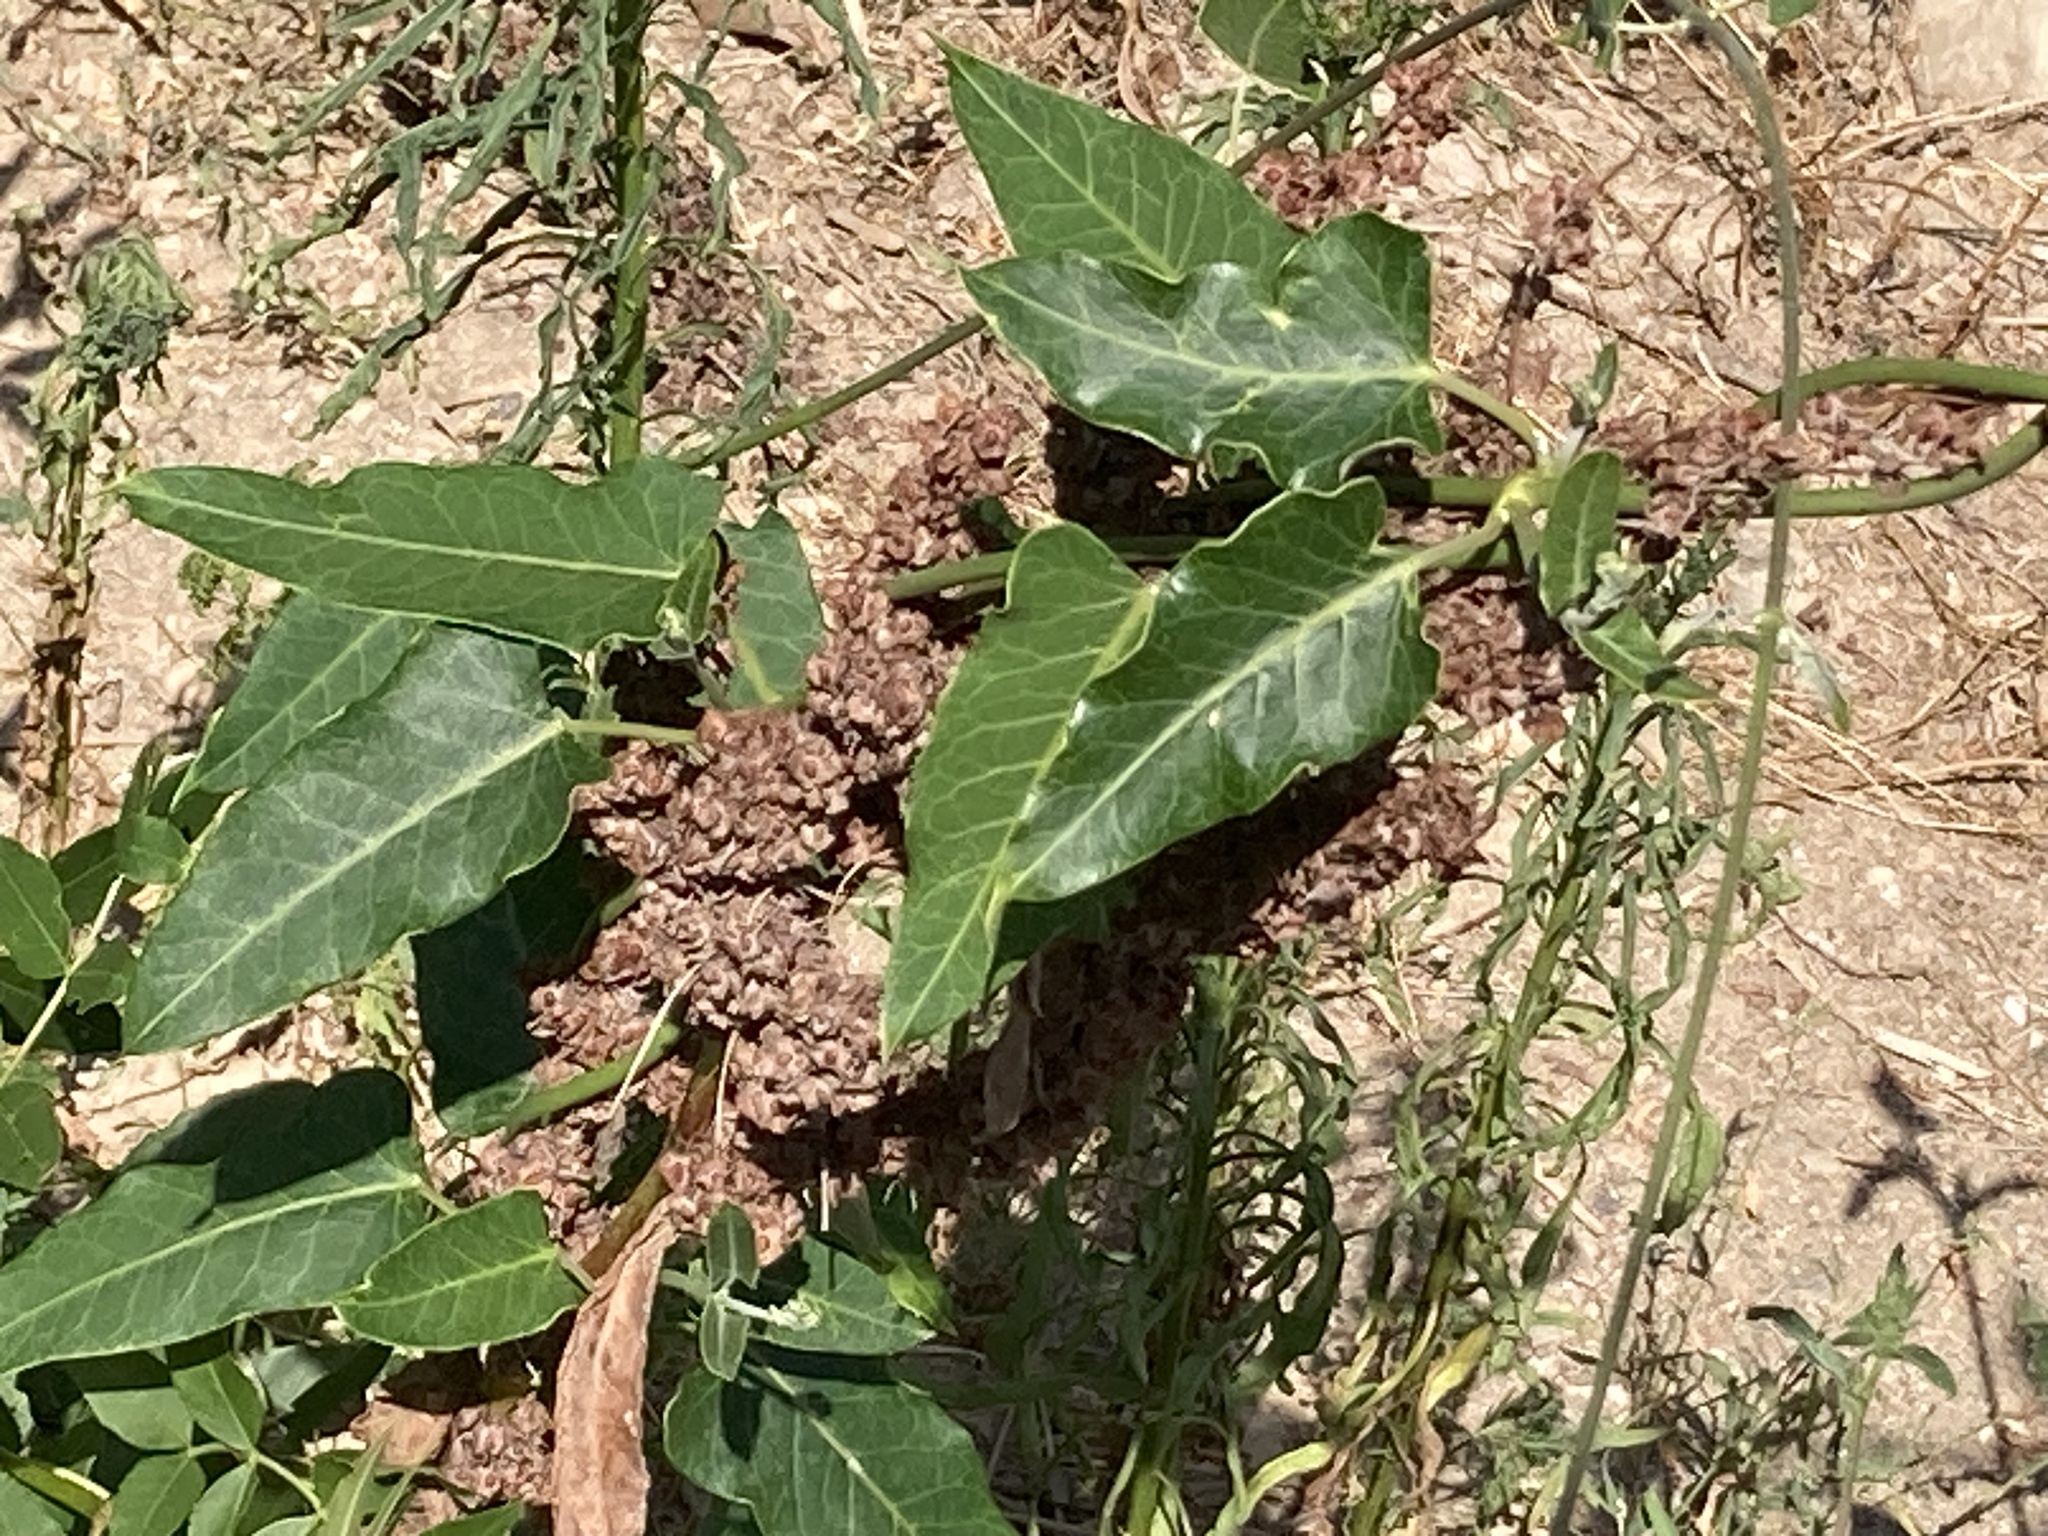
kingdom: Plantae
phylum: Tracheophyta
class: Magnoliopsida
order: Gentianales
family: Apocynaceae
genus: Araujia
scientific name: Araujia sericifera
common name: White bladderflower
